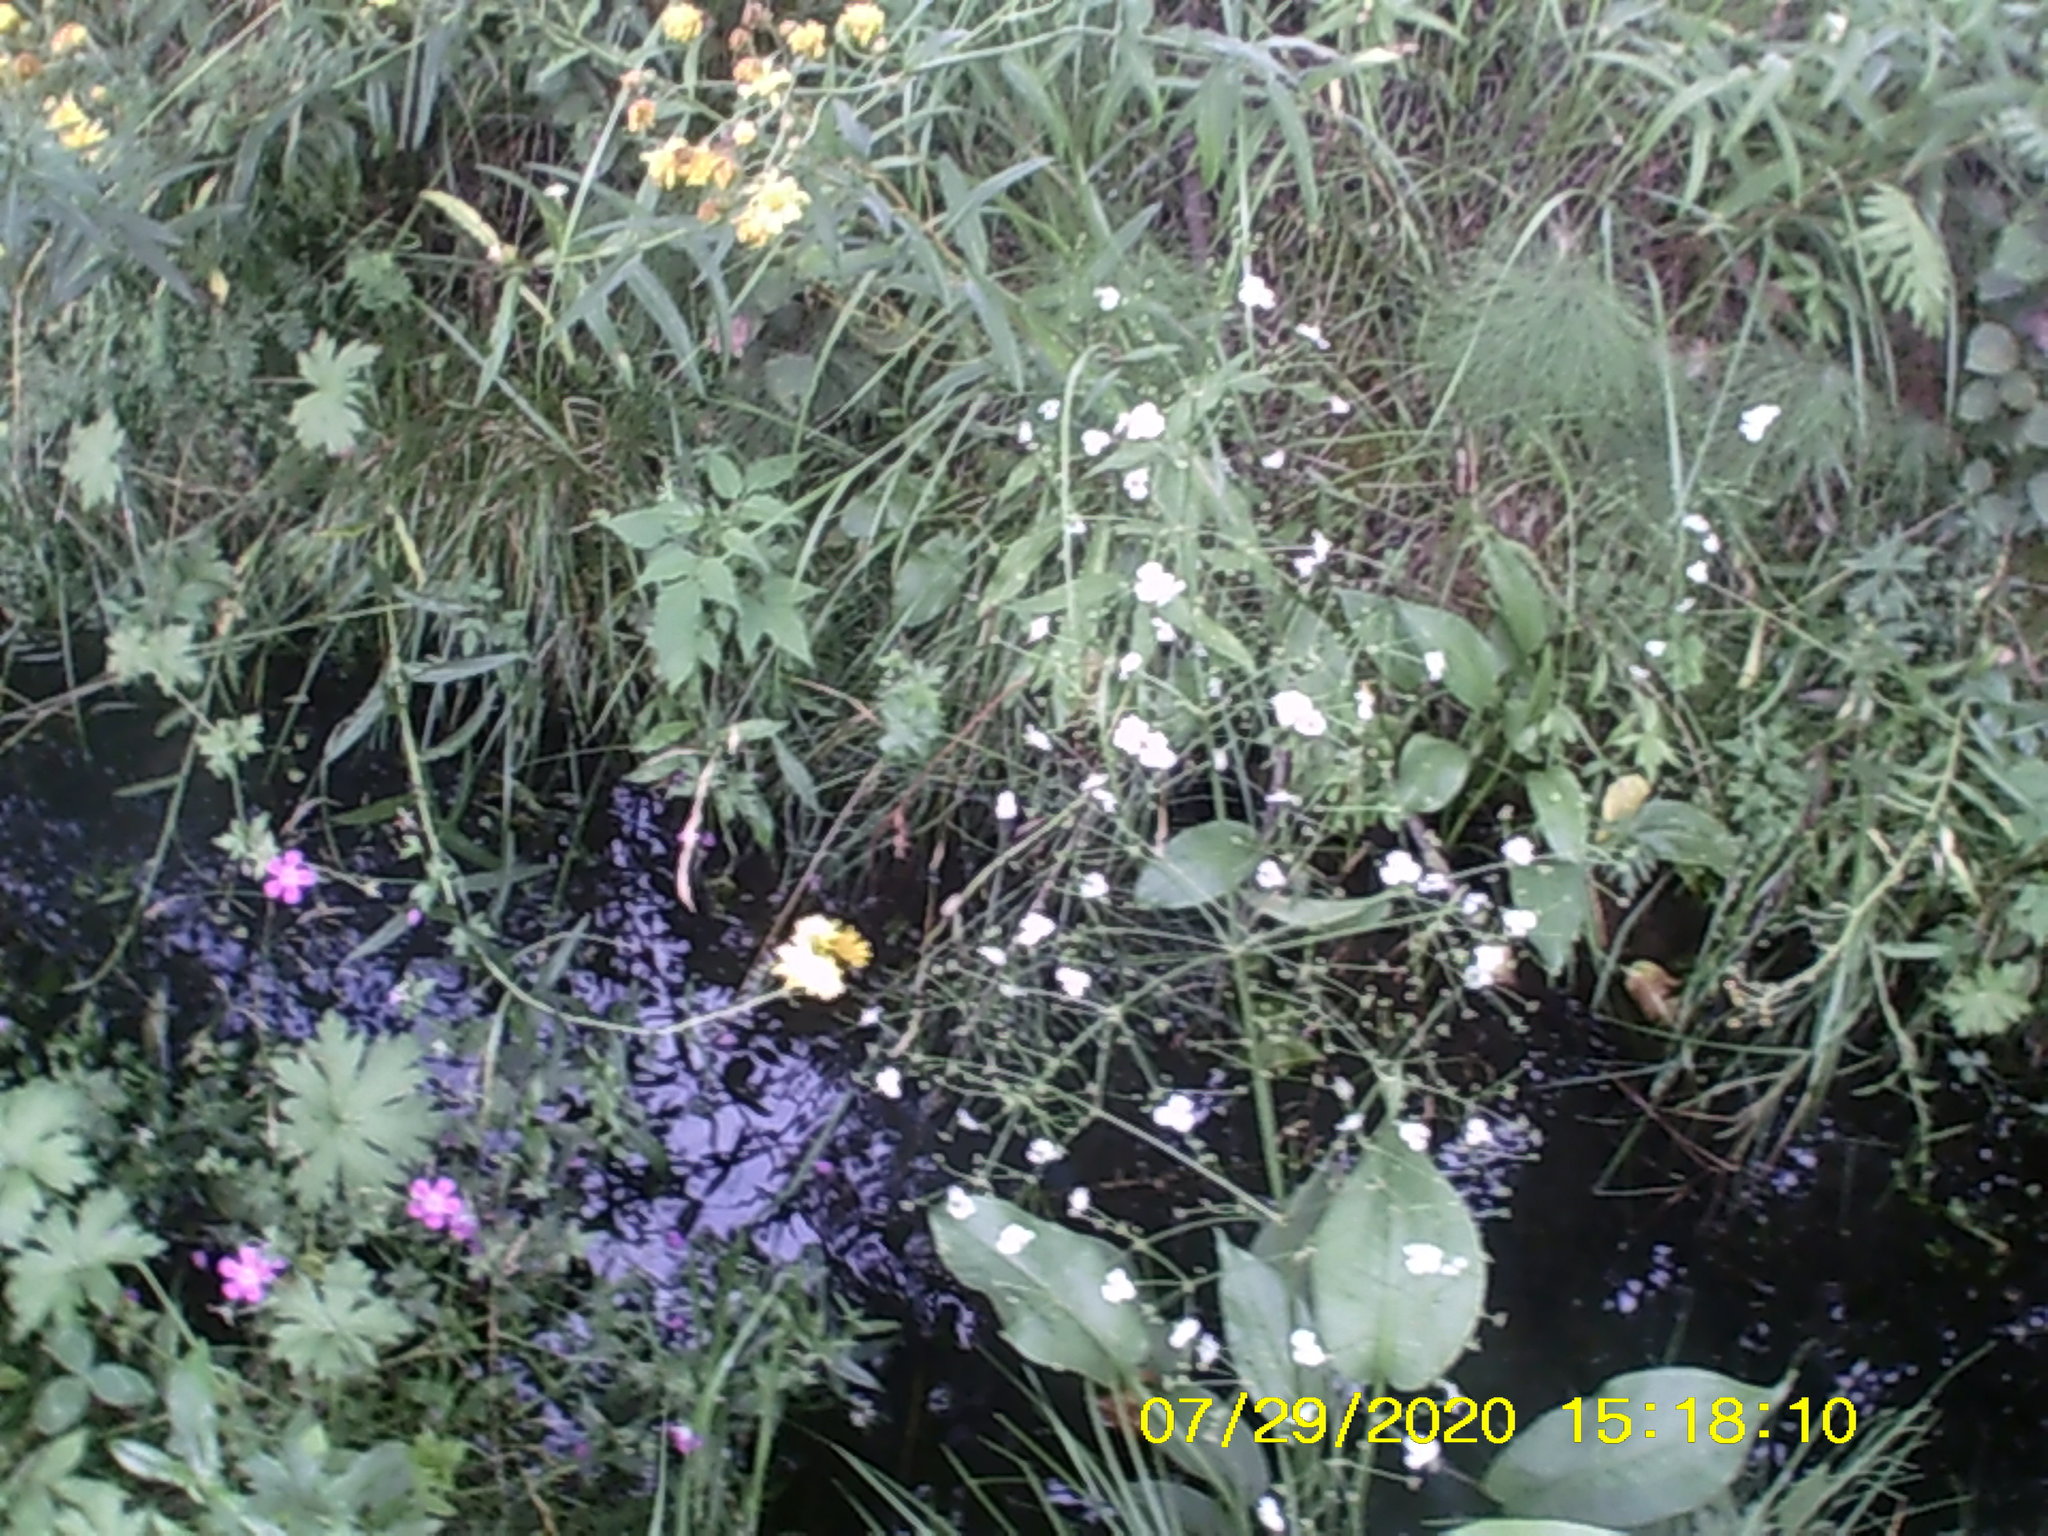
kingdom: Plantae
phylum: Tracheophyta
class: Liliopsida
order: Alismatales
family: Alismataceae
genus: Alisma
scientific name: Alisma plantago-aquatica
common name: Water-plantain
